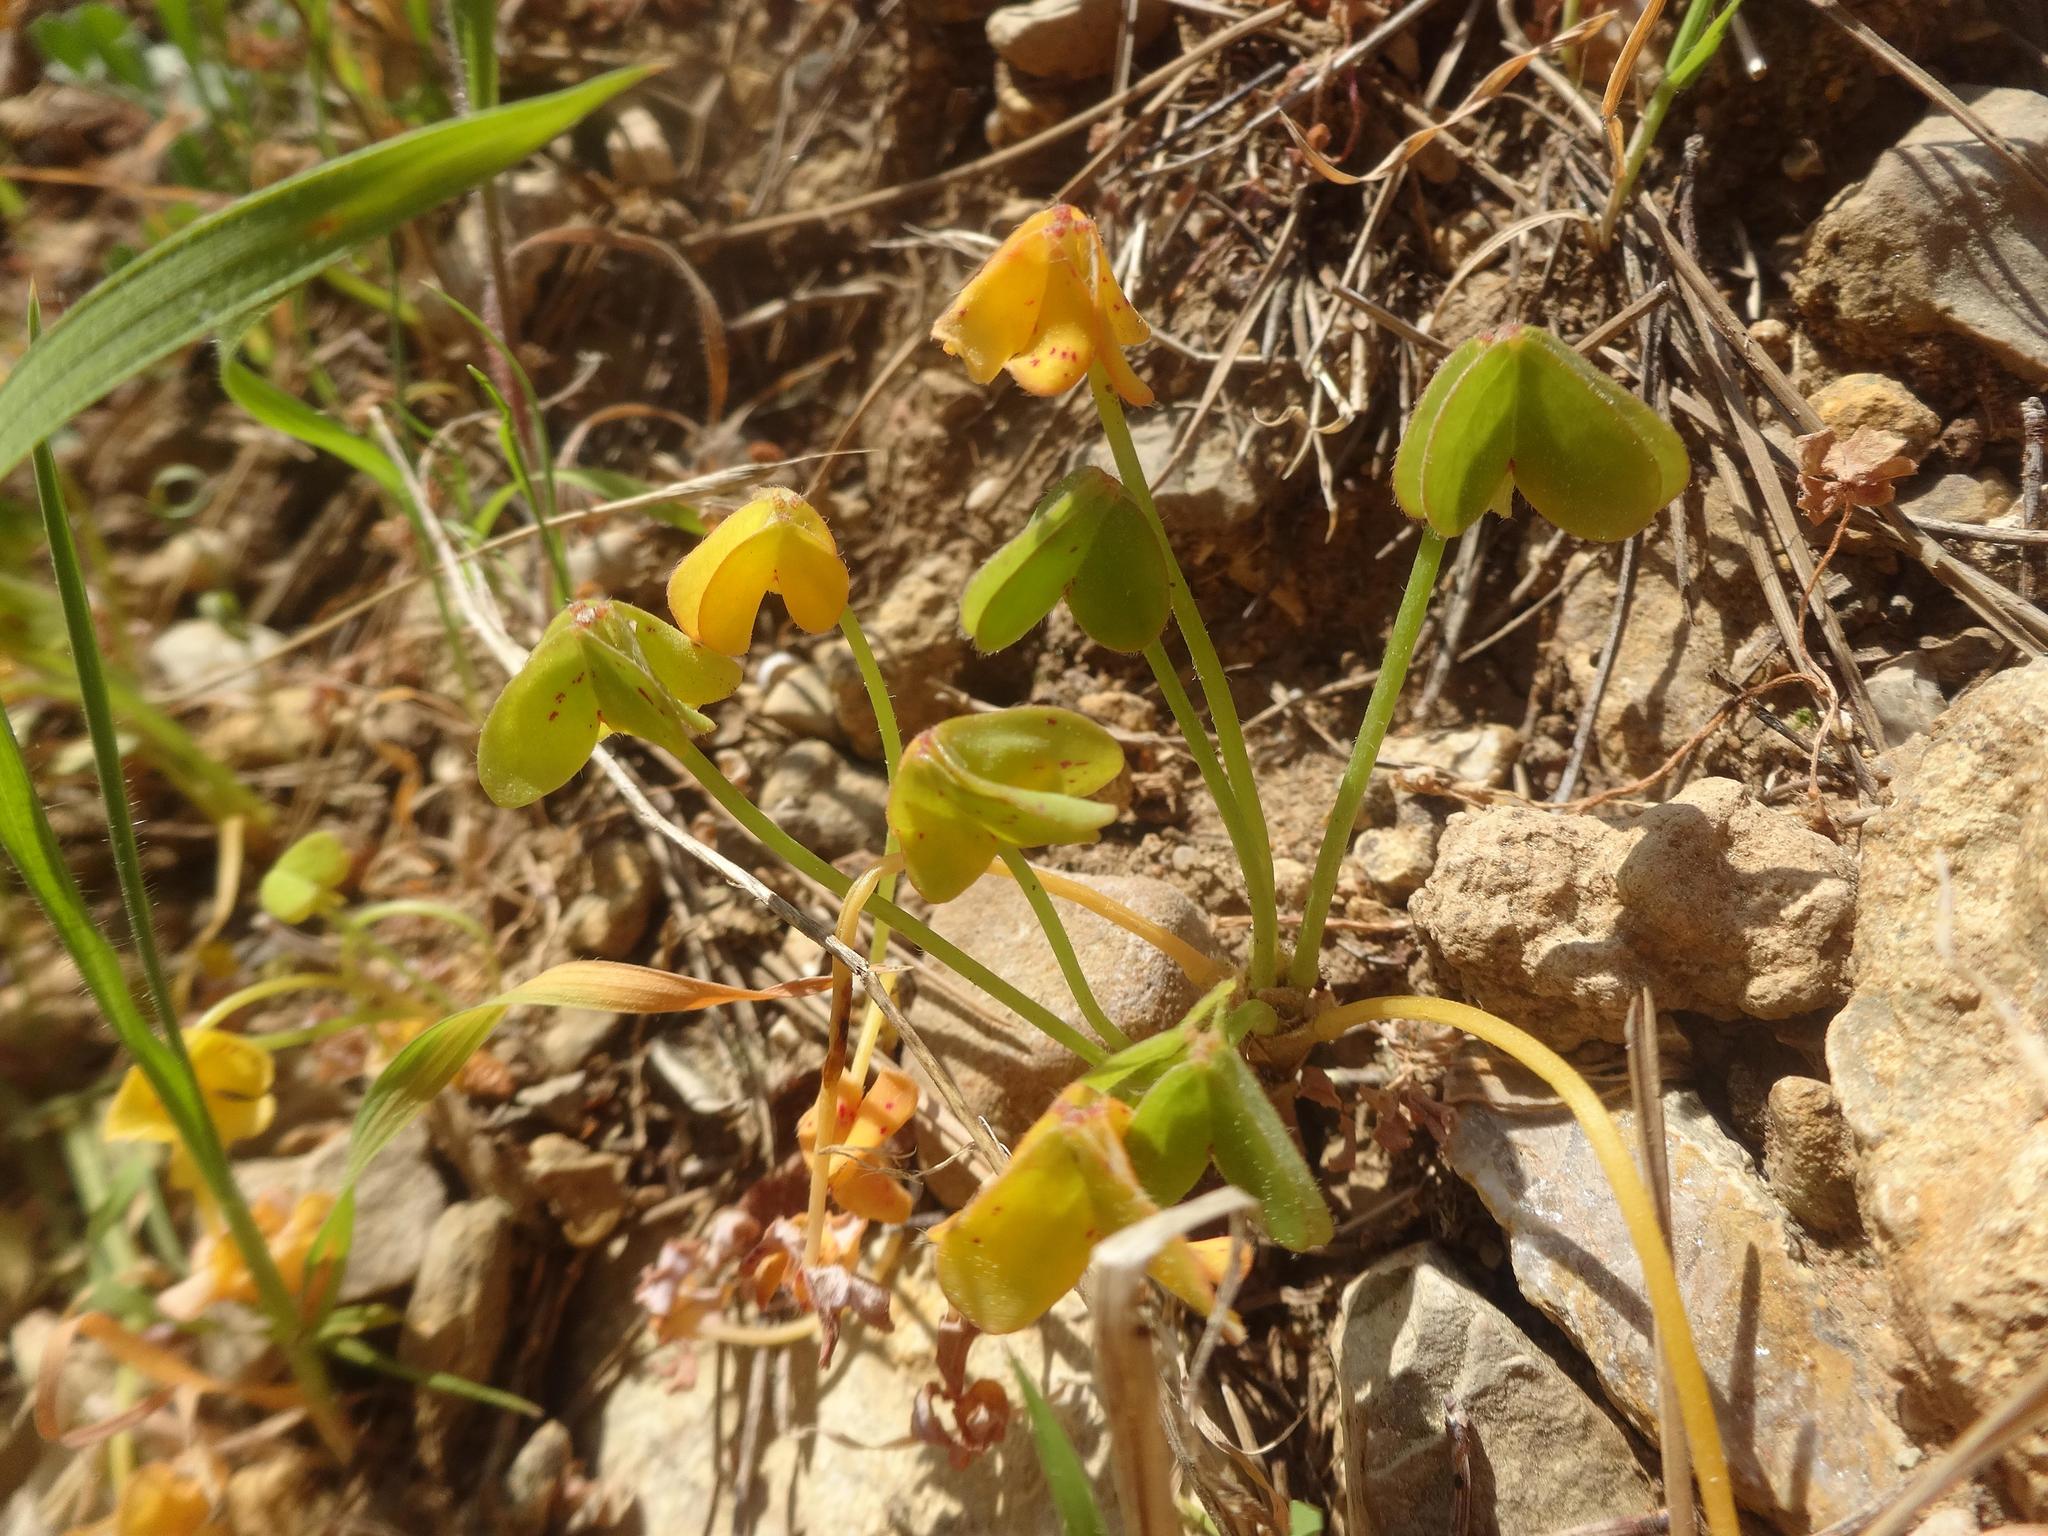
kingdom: Plantae
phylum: Tracheophyta
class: Magnoliopsida
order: Oxalidales
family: Oxalidaceae
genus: Oxalis
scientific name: Oxalis pes-caprae
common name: Bermuda-buttercup
